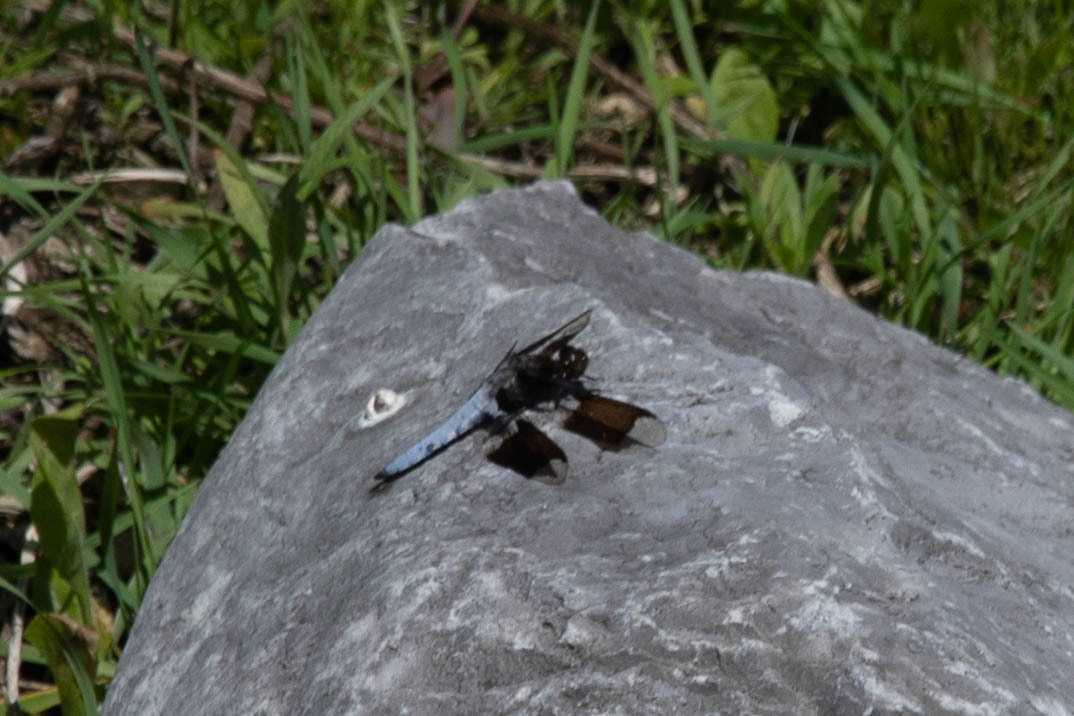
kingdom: Animalia
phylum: Arthropoda
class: Insecta
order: Odonata
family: Libellulidae
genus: Plathemis
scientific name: Plathemis lydia
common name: Common whitetail
